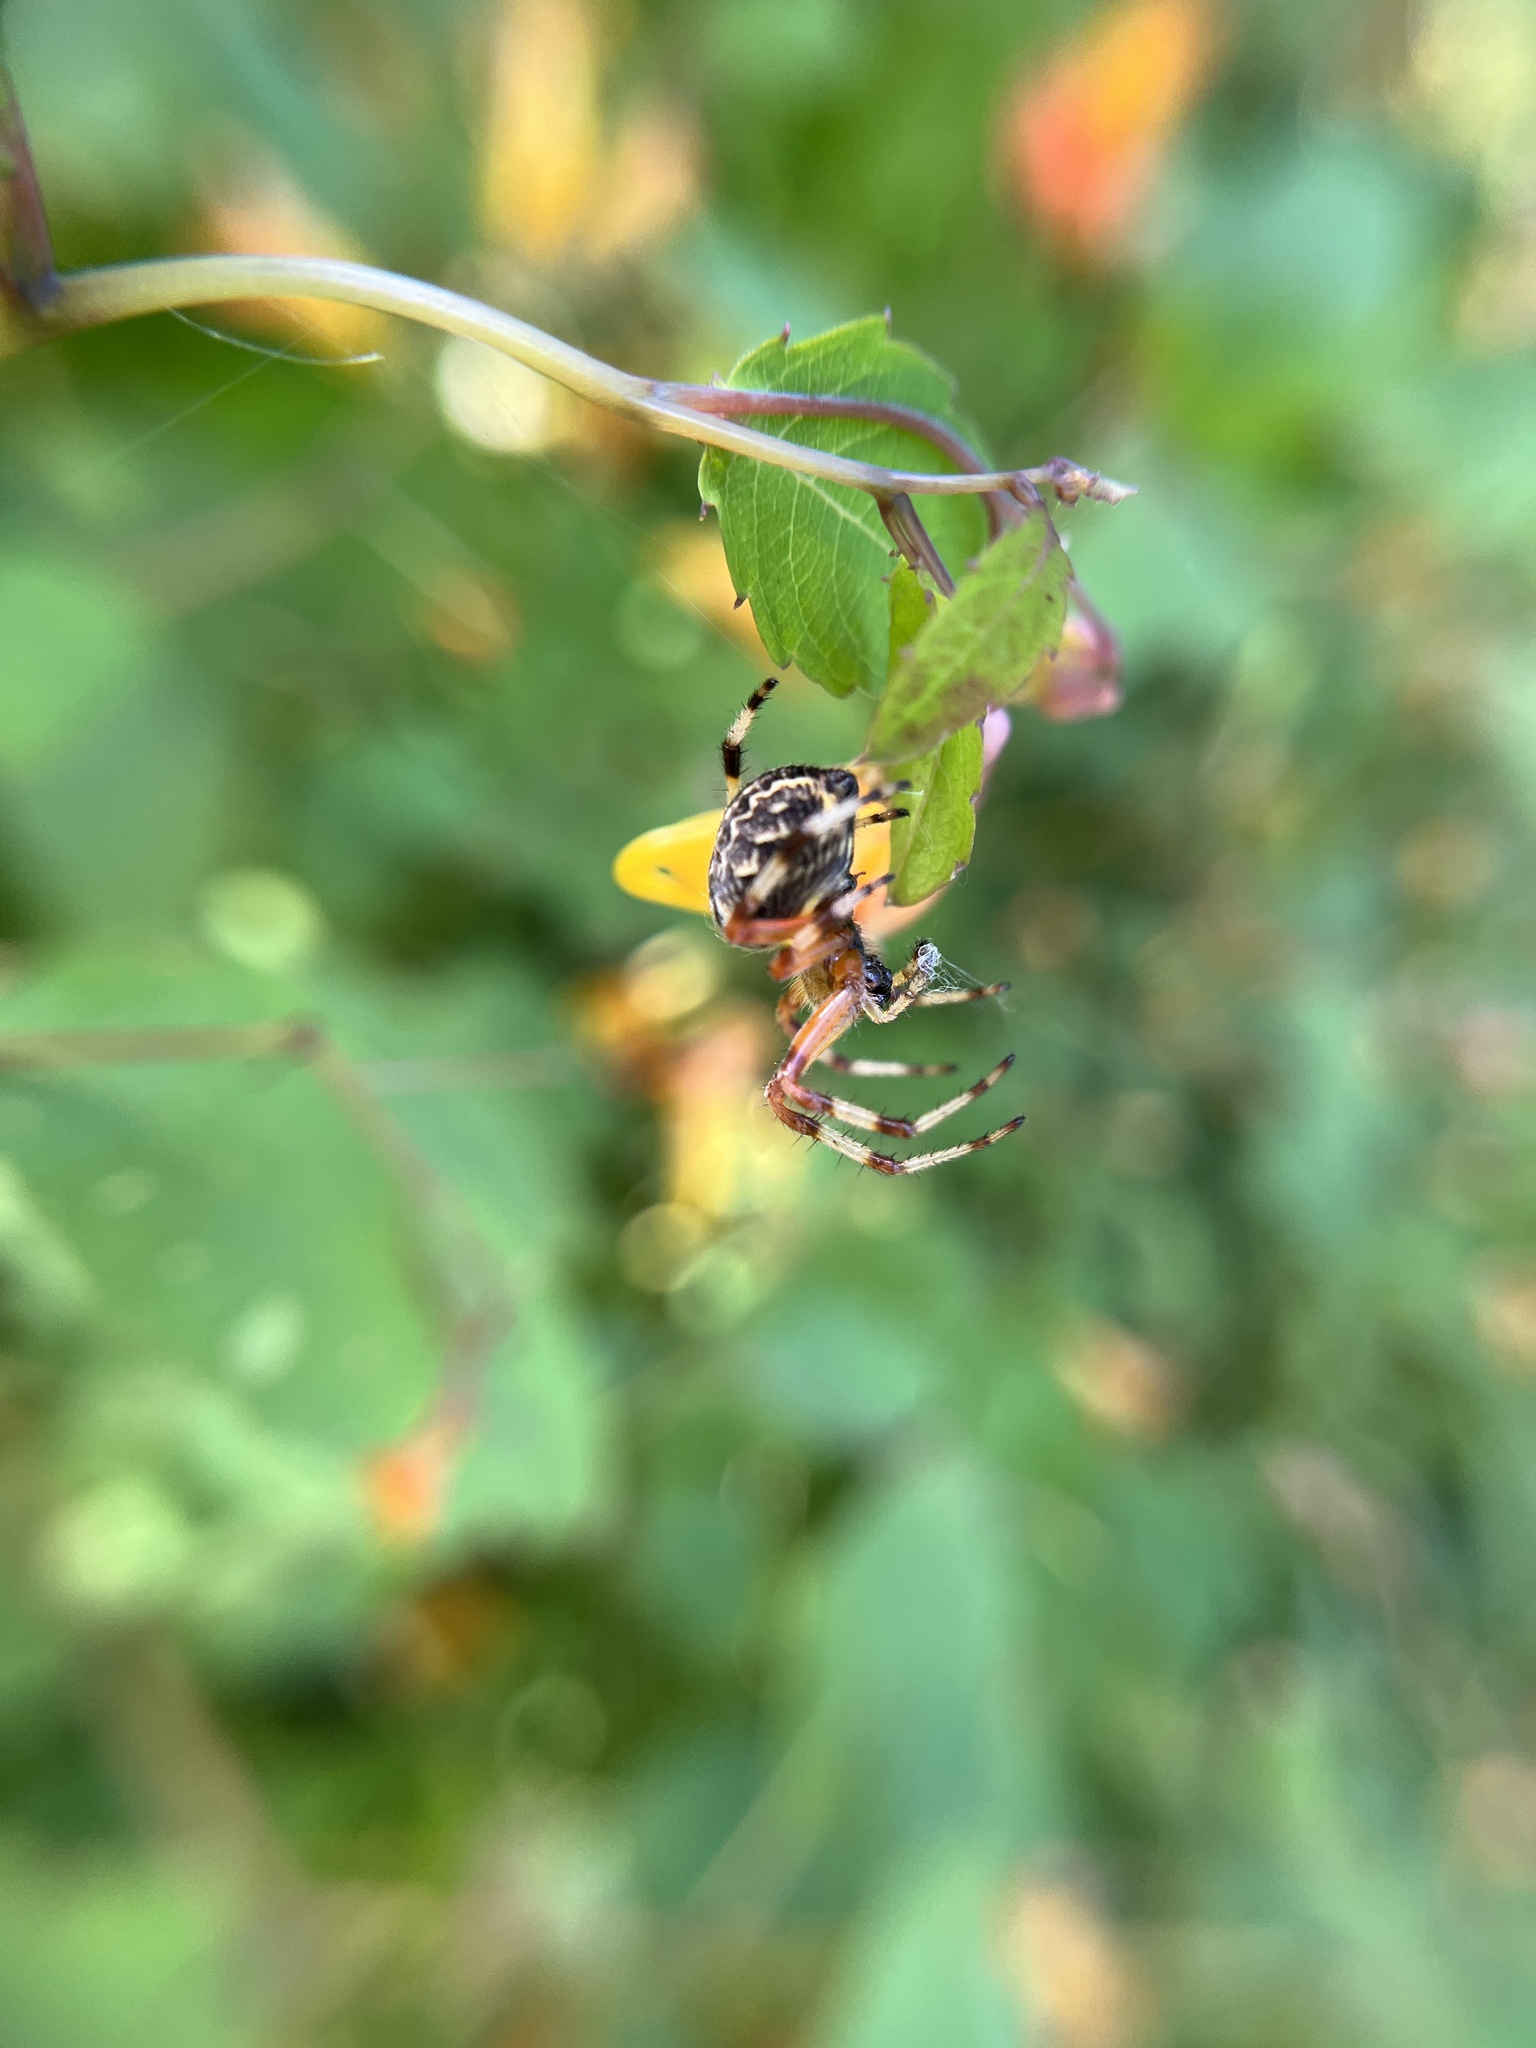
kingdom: Animalia
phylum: Arthropoda
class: Arachnida
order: Araneae
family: Araneidae
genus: Araneus
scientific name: Araneus marmoreus
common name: Marbled orbweaver
